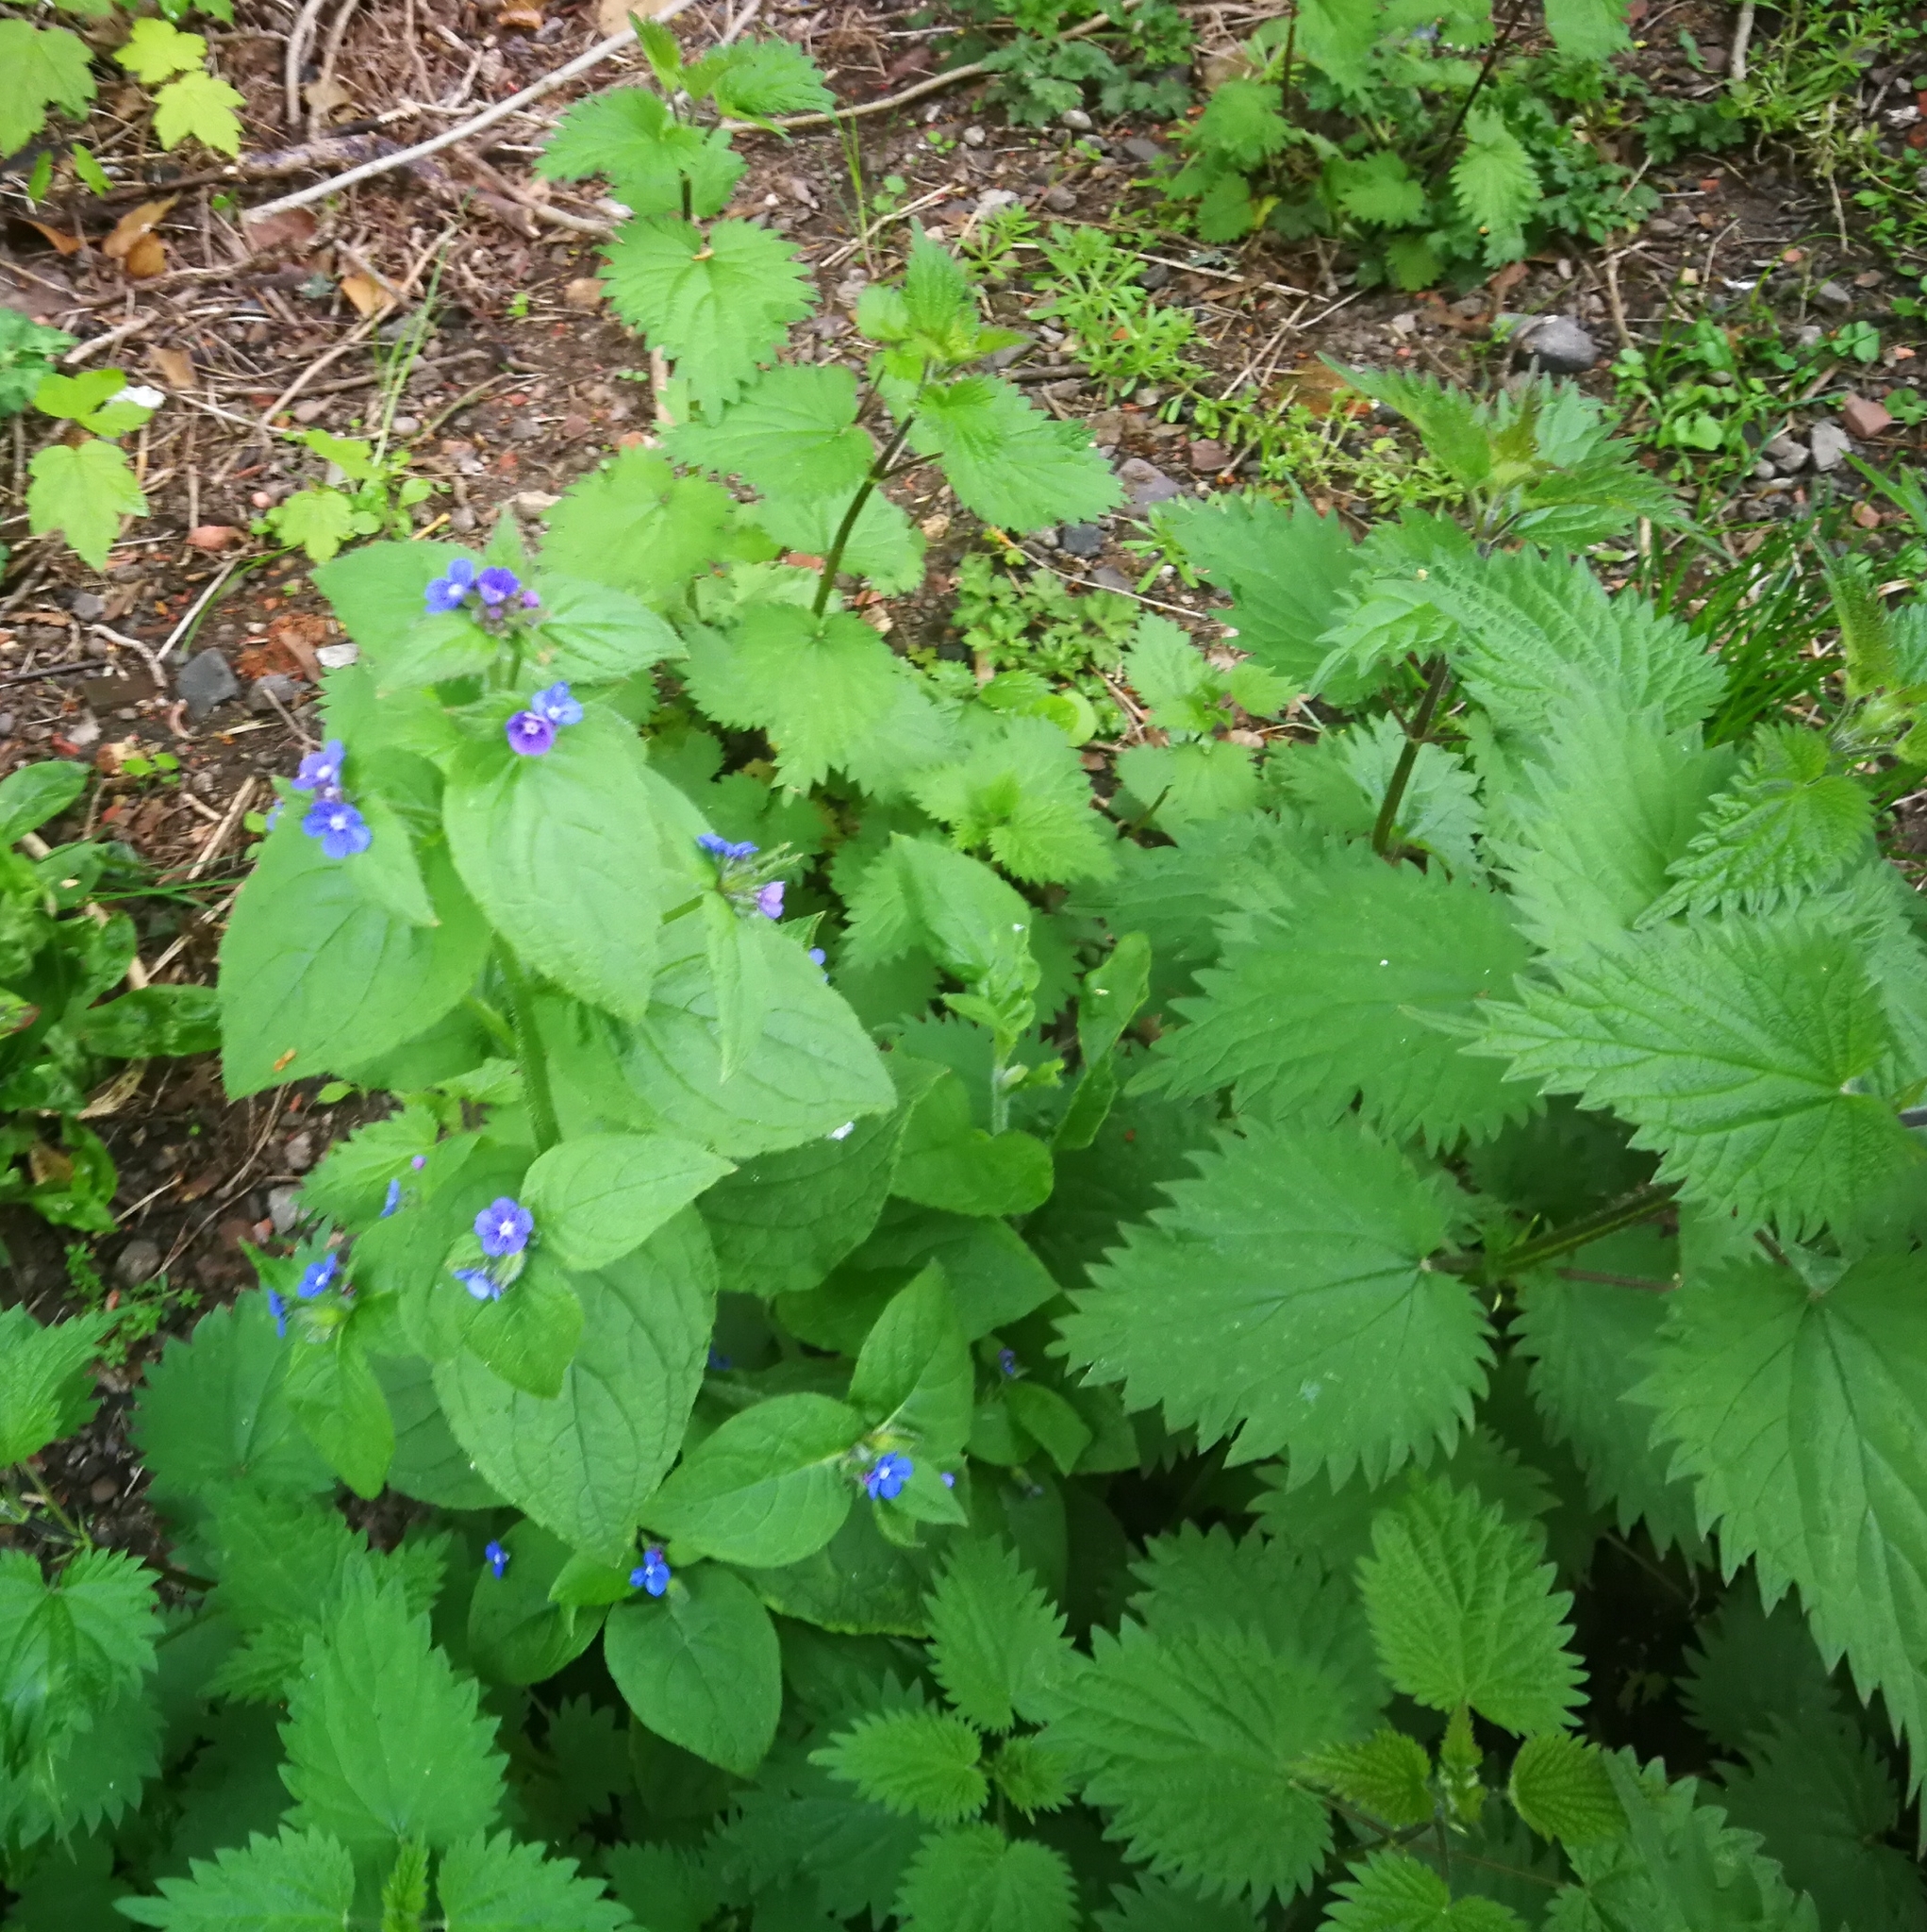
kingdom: Plantae
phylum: Tracheophyta
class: Magnoliopsida
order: Rosales
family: Urticaceae
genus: Urtica
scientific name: Urtica dioica
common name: Common nettle
